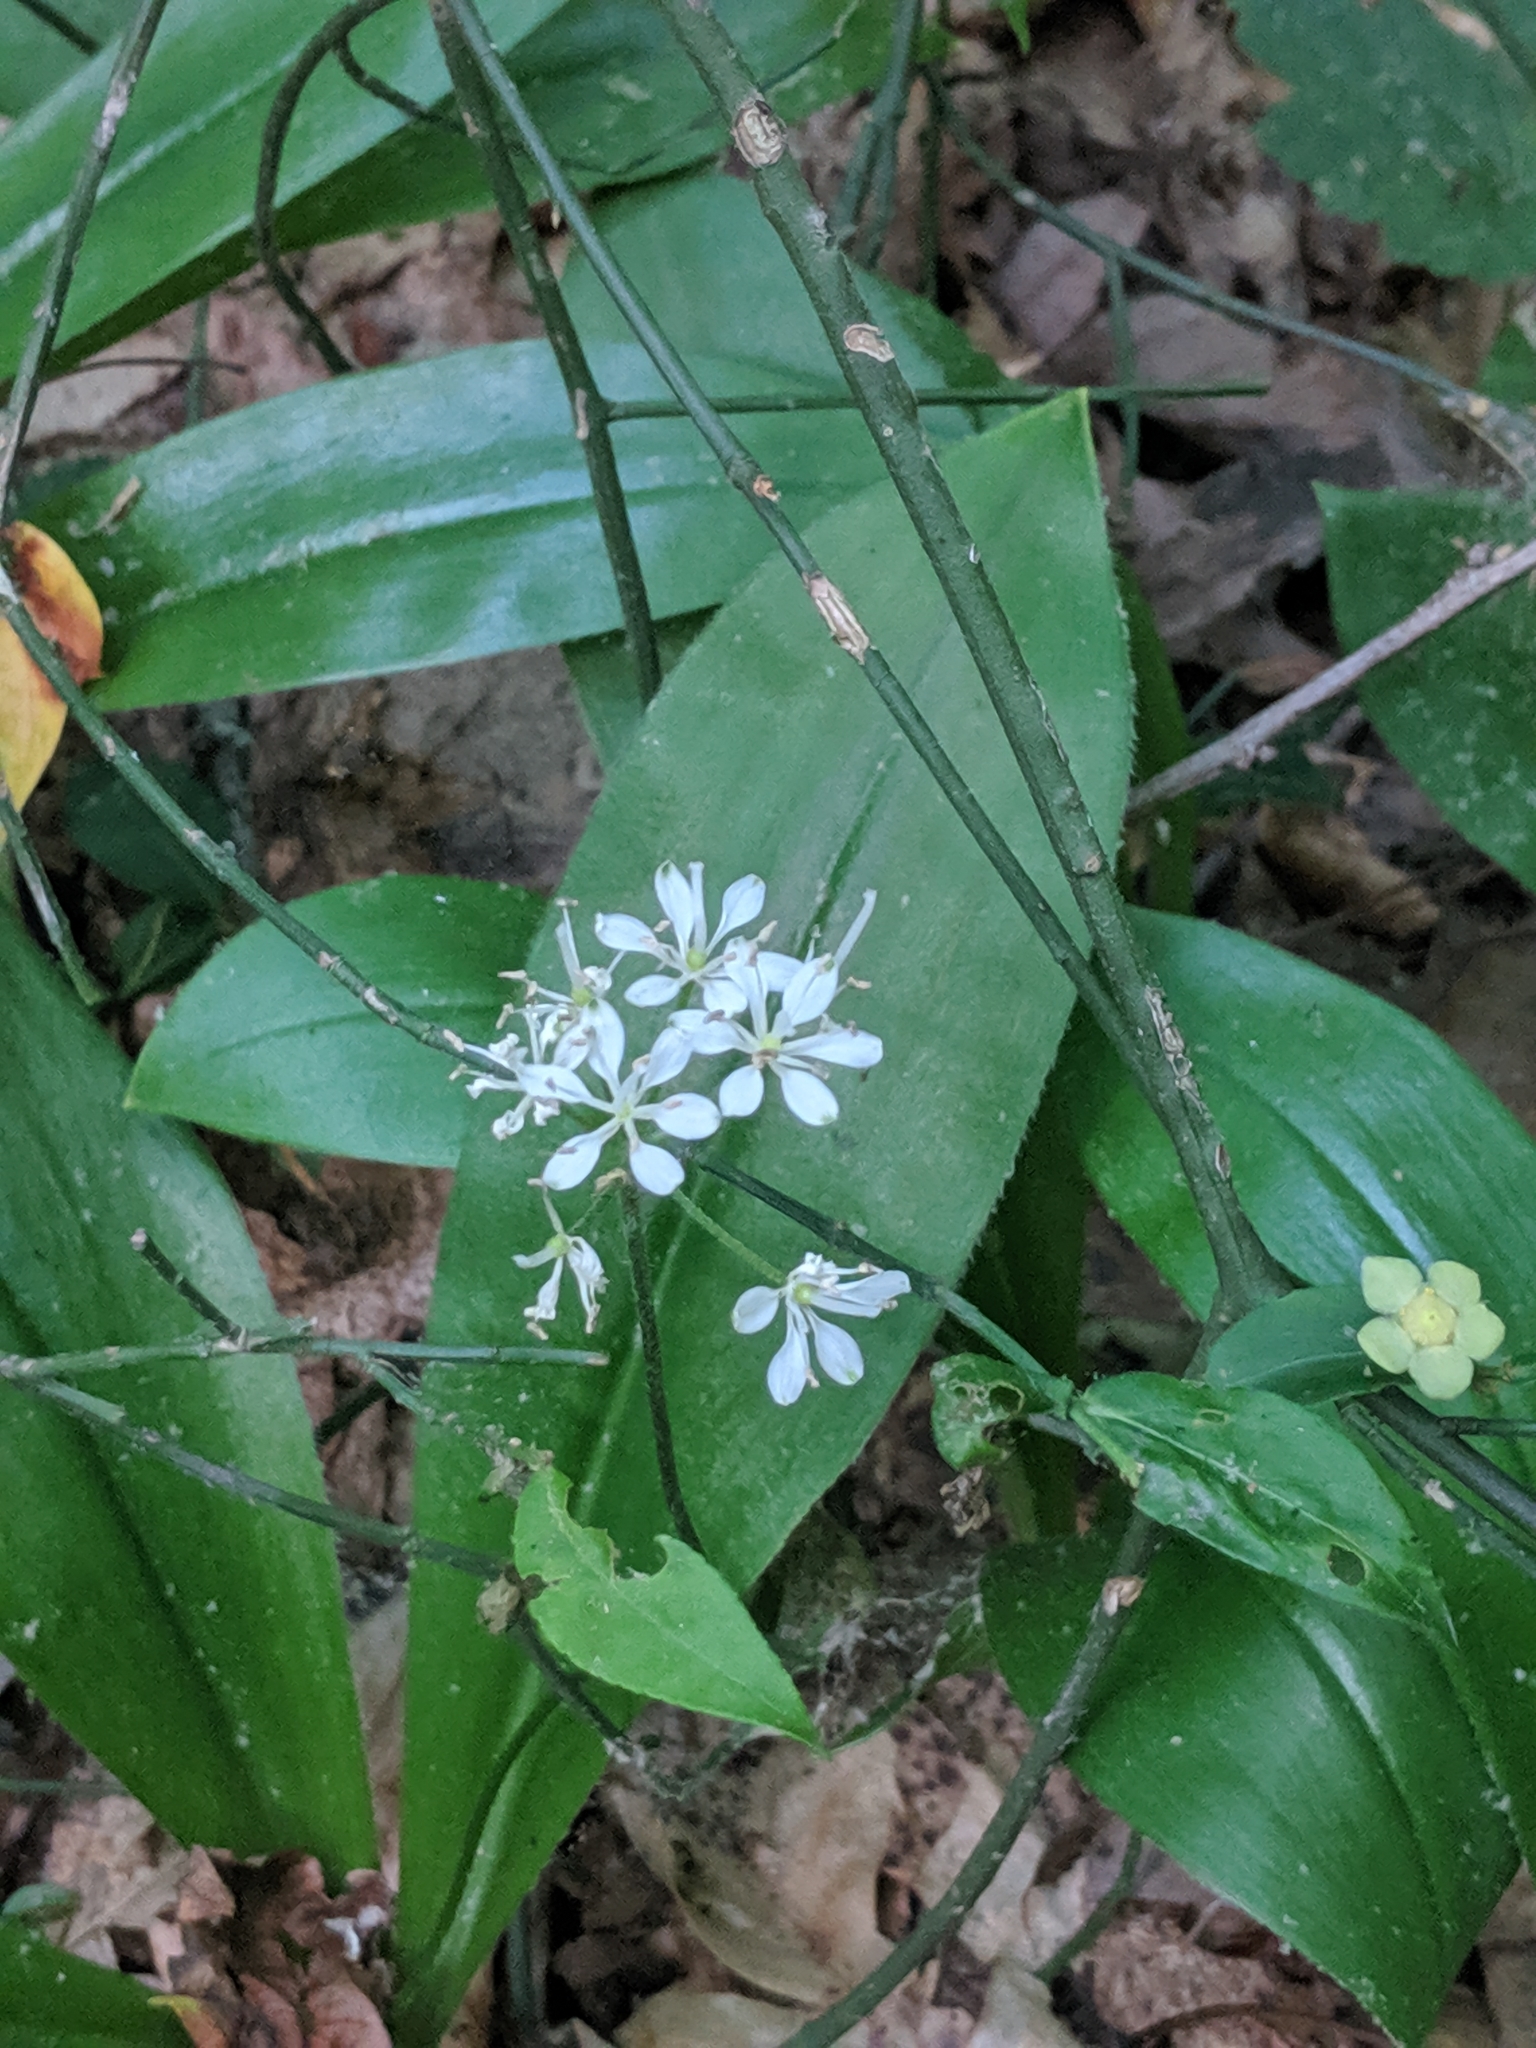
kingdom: Plantae
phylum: Tracheophyta
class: Liliopsida
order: Liliales
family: Liliaceae
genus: Clintonia
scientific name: Clintonia umbellulata
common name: Speckle wood-lily
